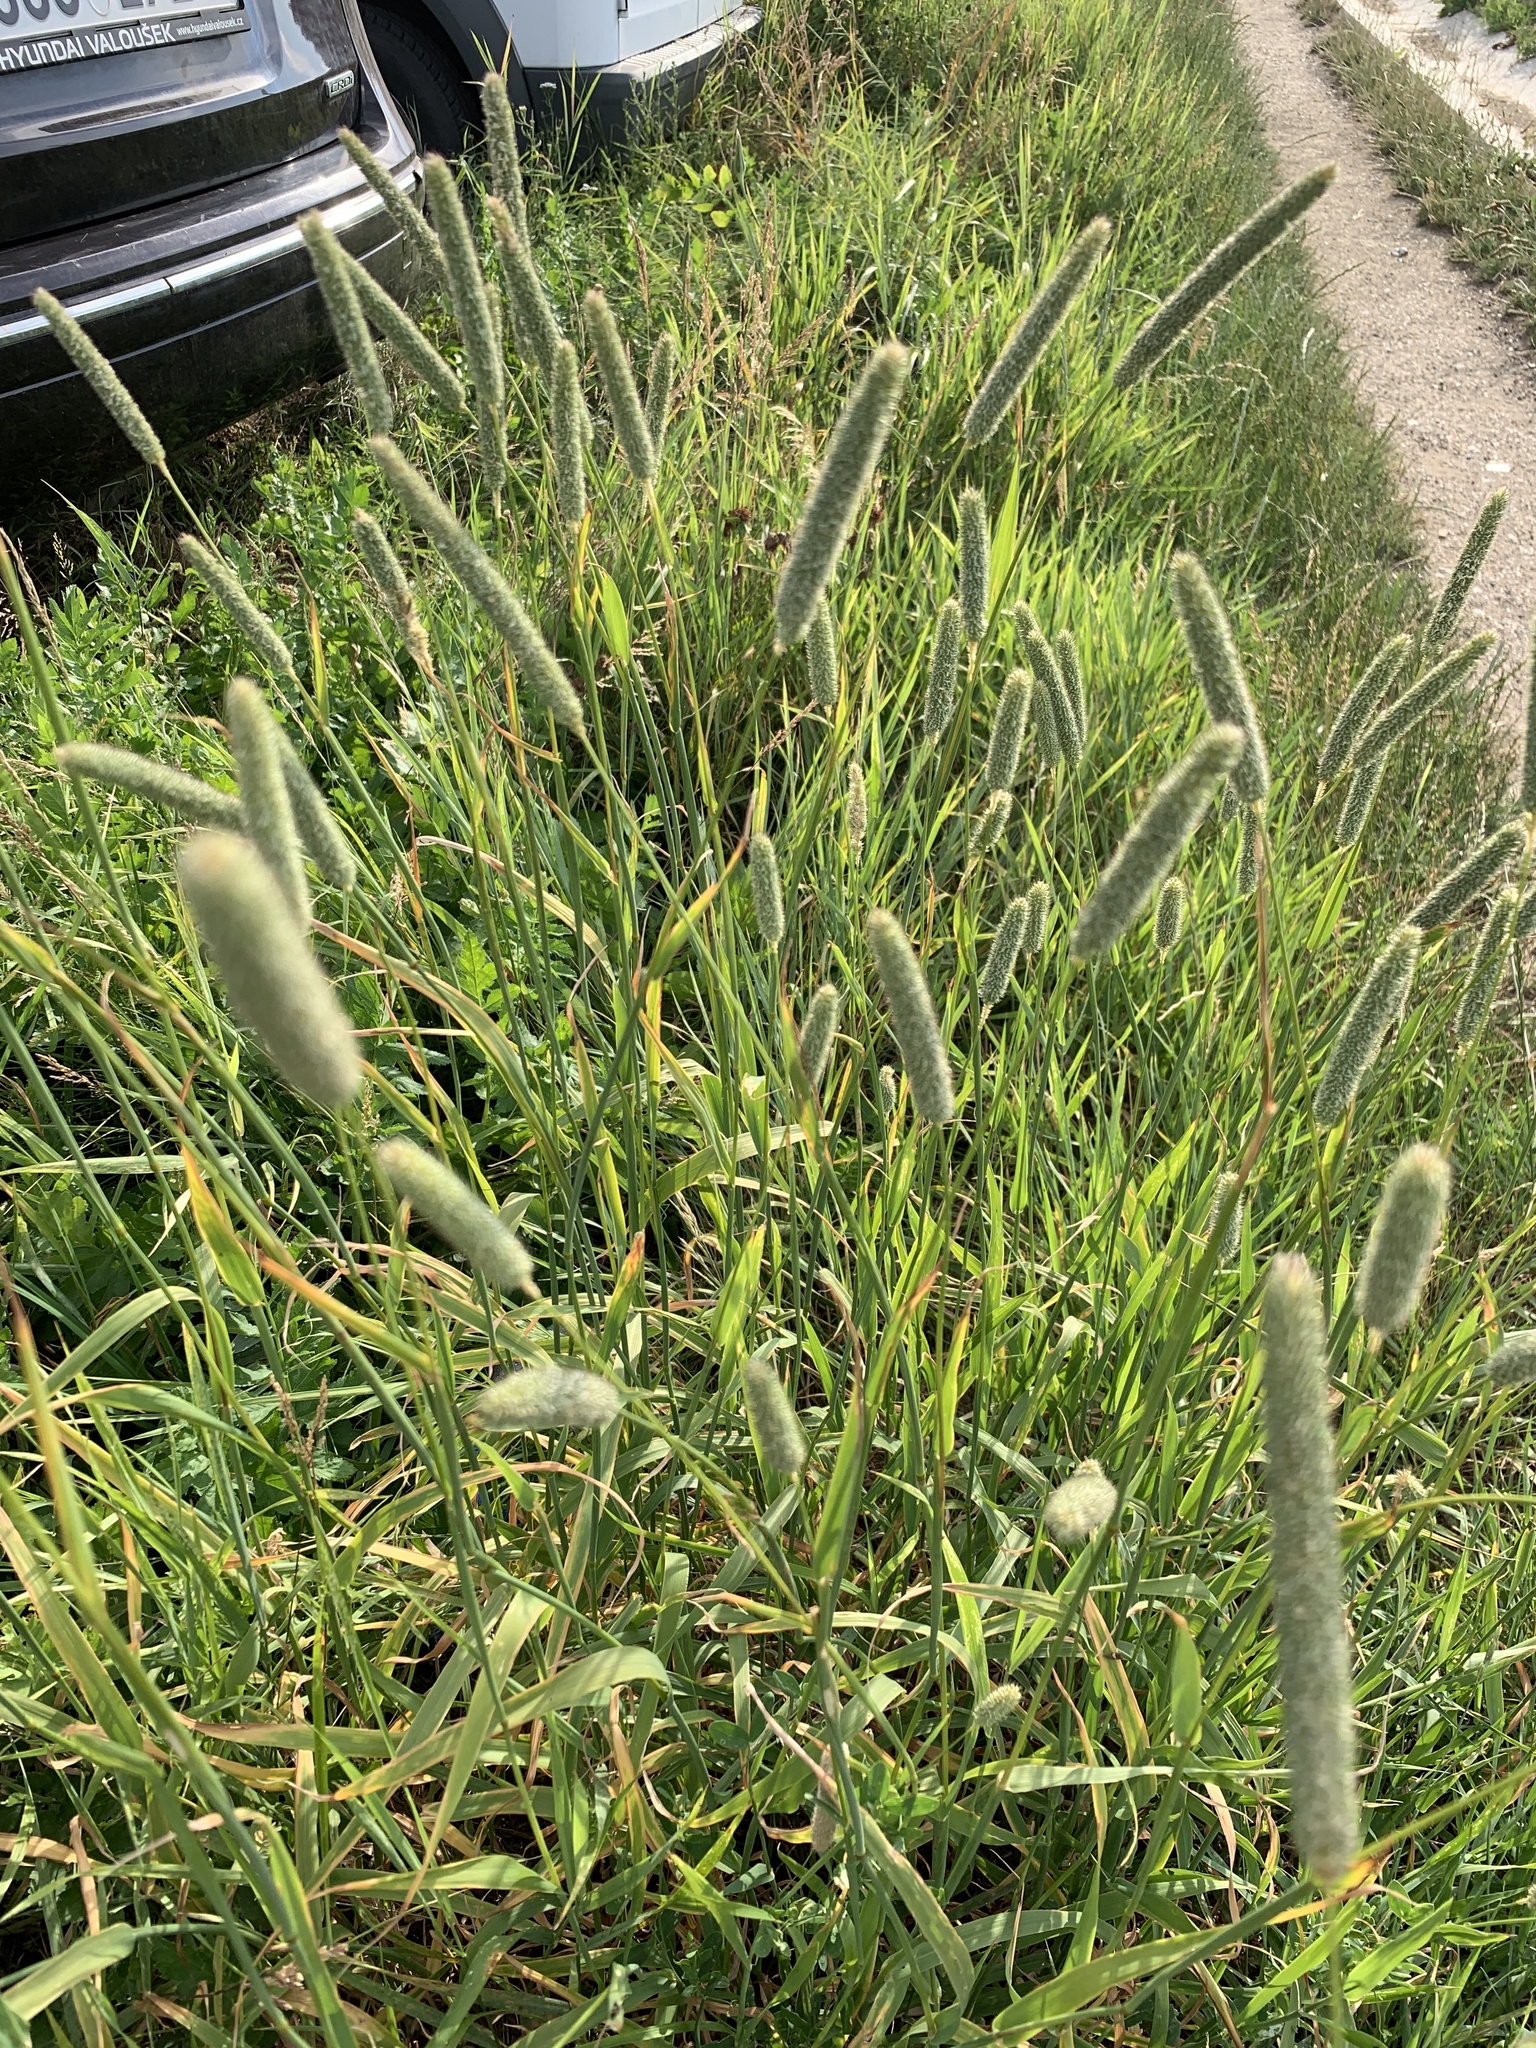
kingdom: Plantae
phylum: Tracheophyta
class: Liliopsida
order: Poales
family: Poaceae
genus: Phleum
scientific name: Phleum pratense
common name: Timothy grass
